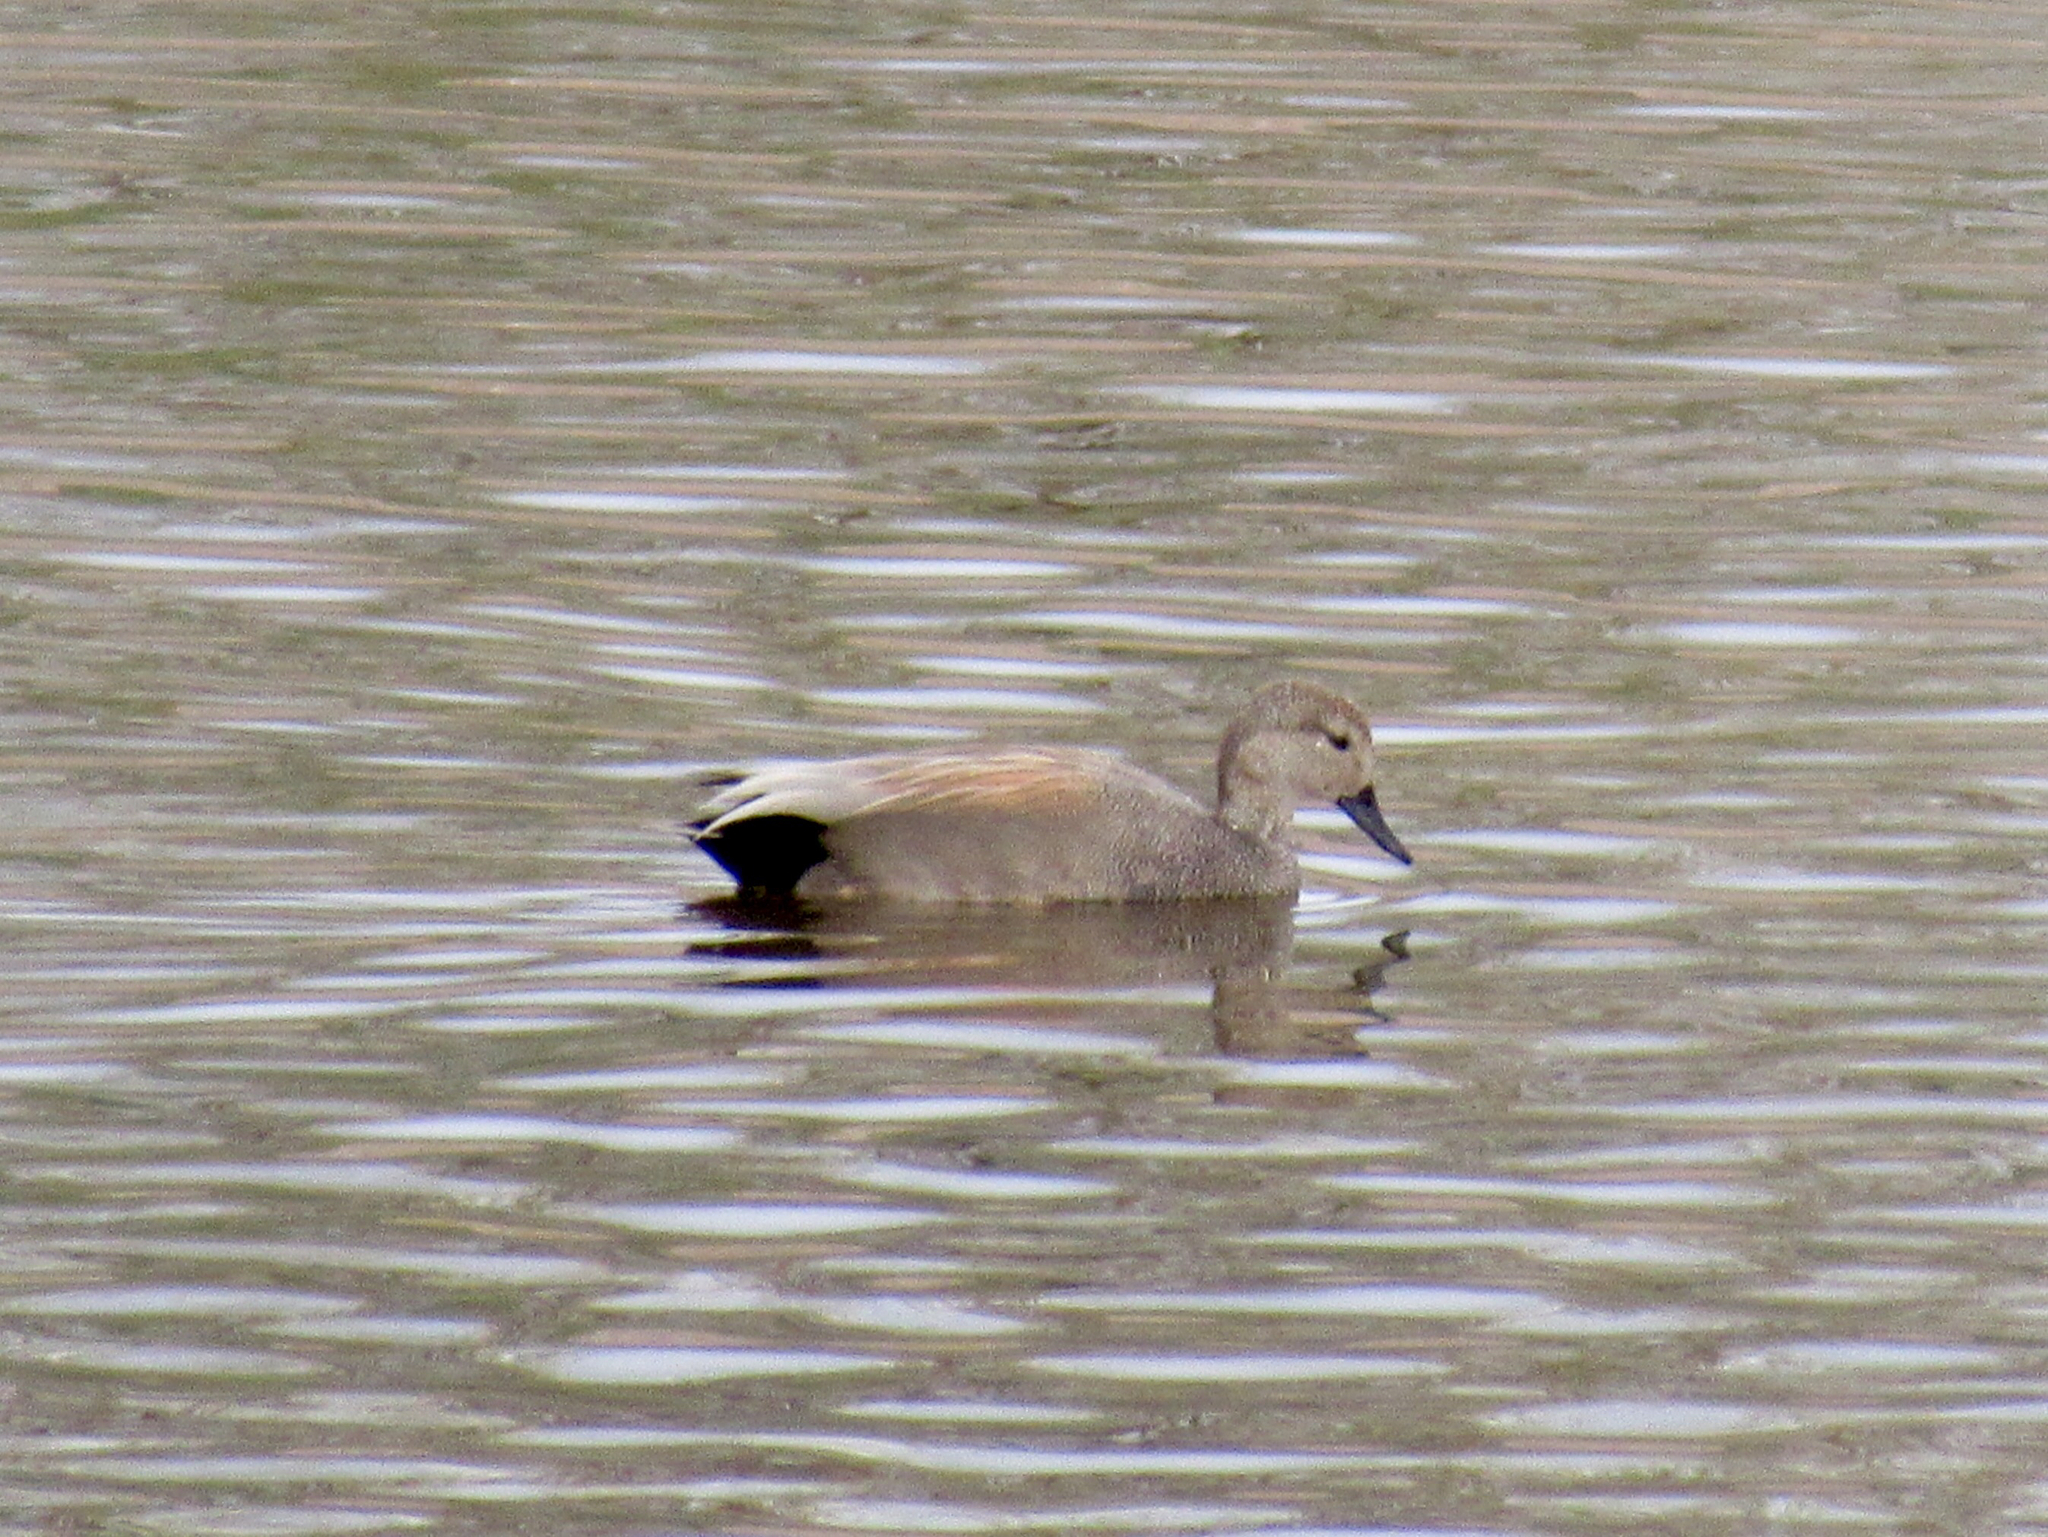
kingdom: Animalia
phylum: Chordata
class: Aves
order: Anseriformes
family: Anatidae
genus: Mareca
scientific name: Mareca strepera
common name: Gadwall
